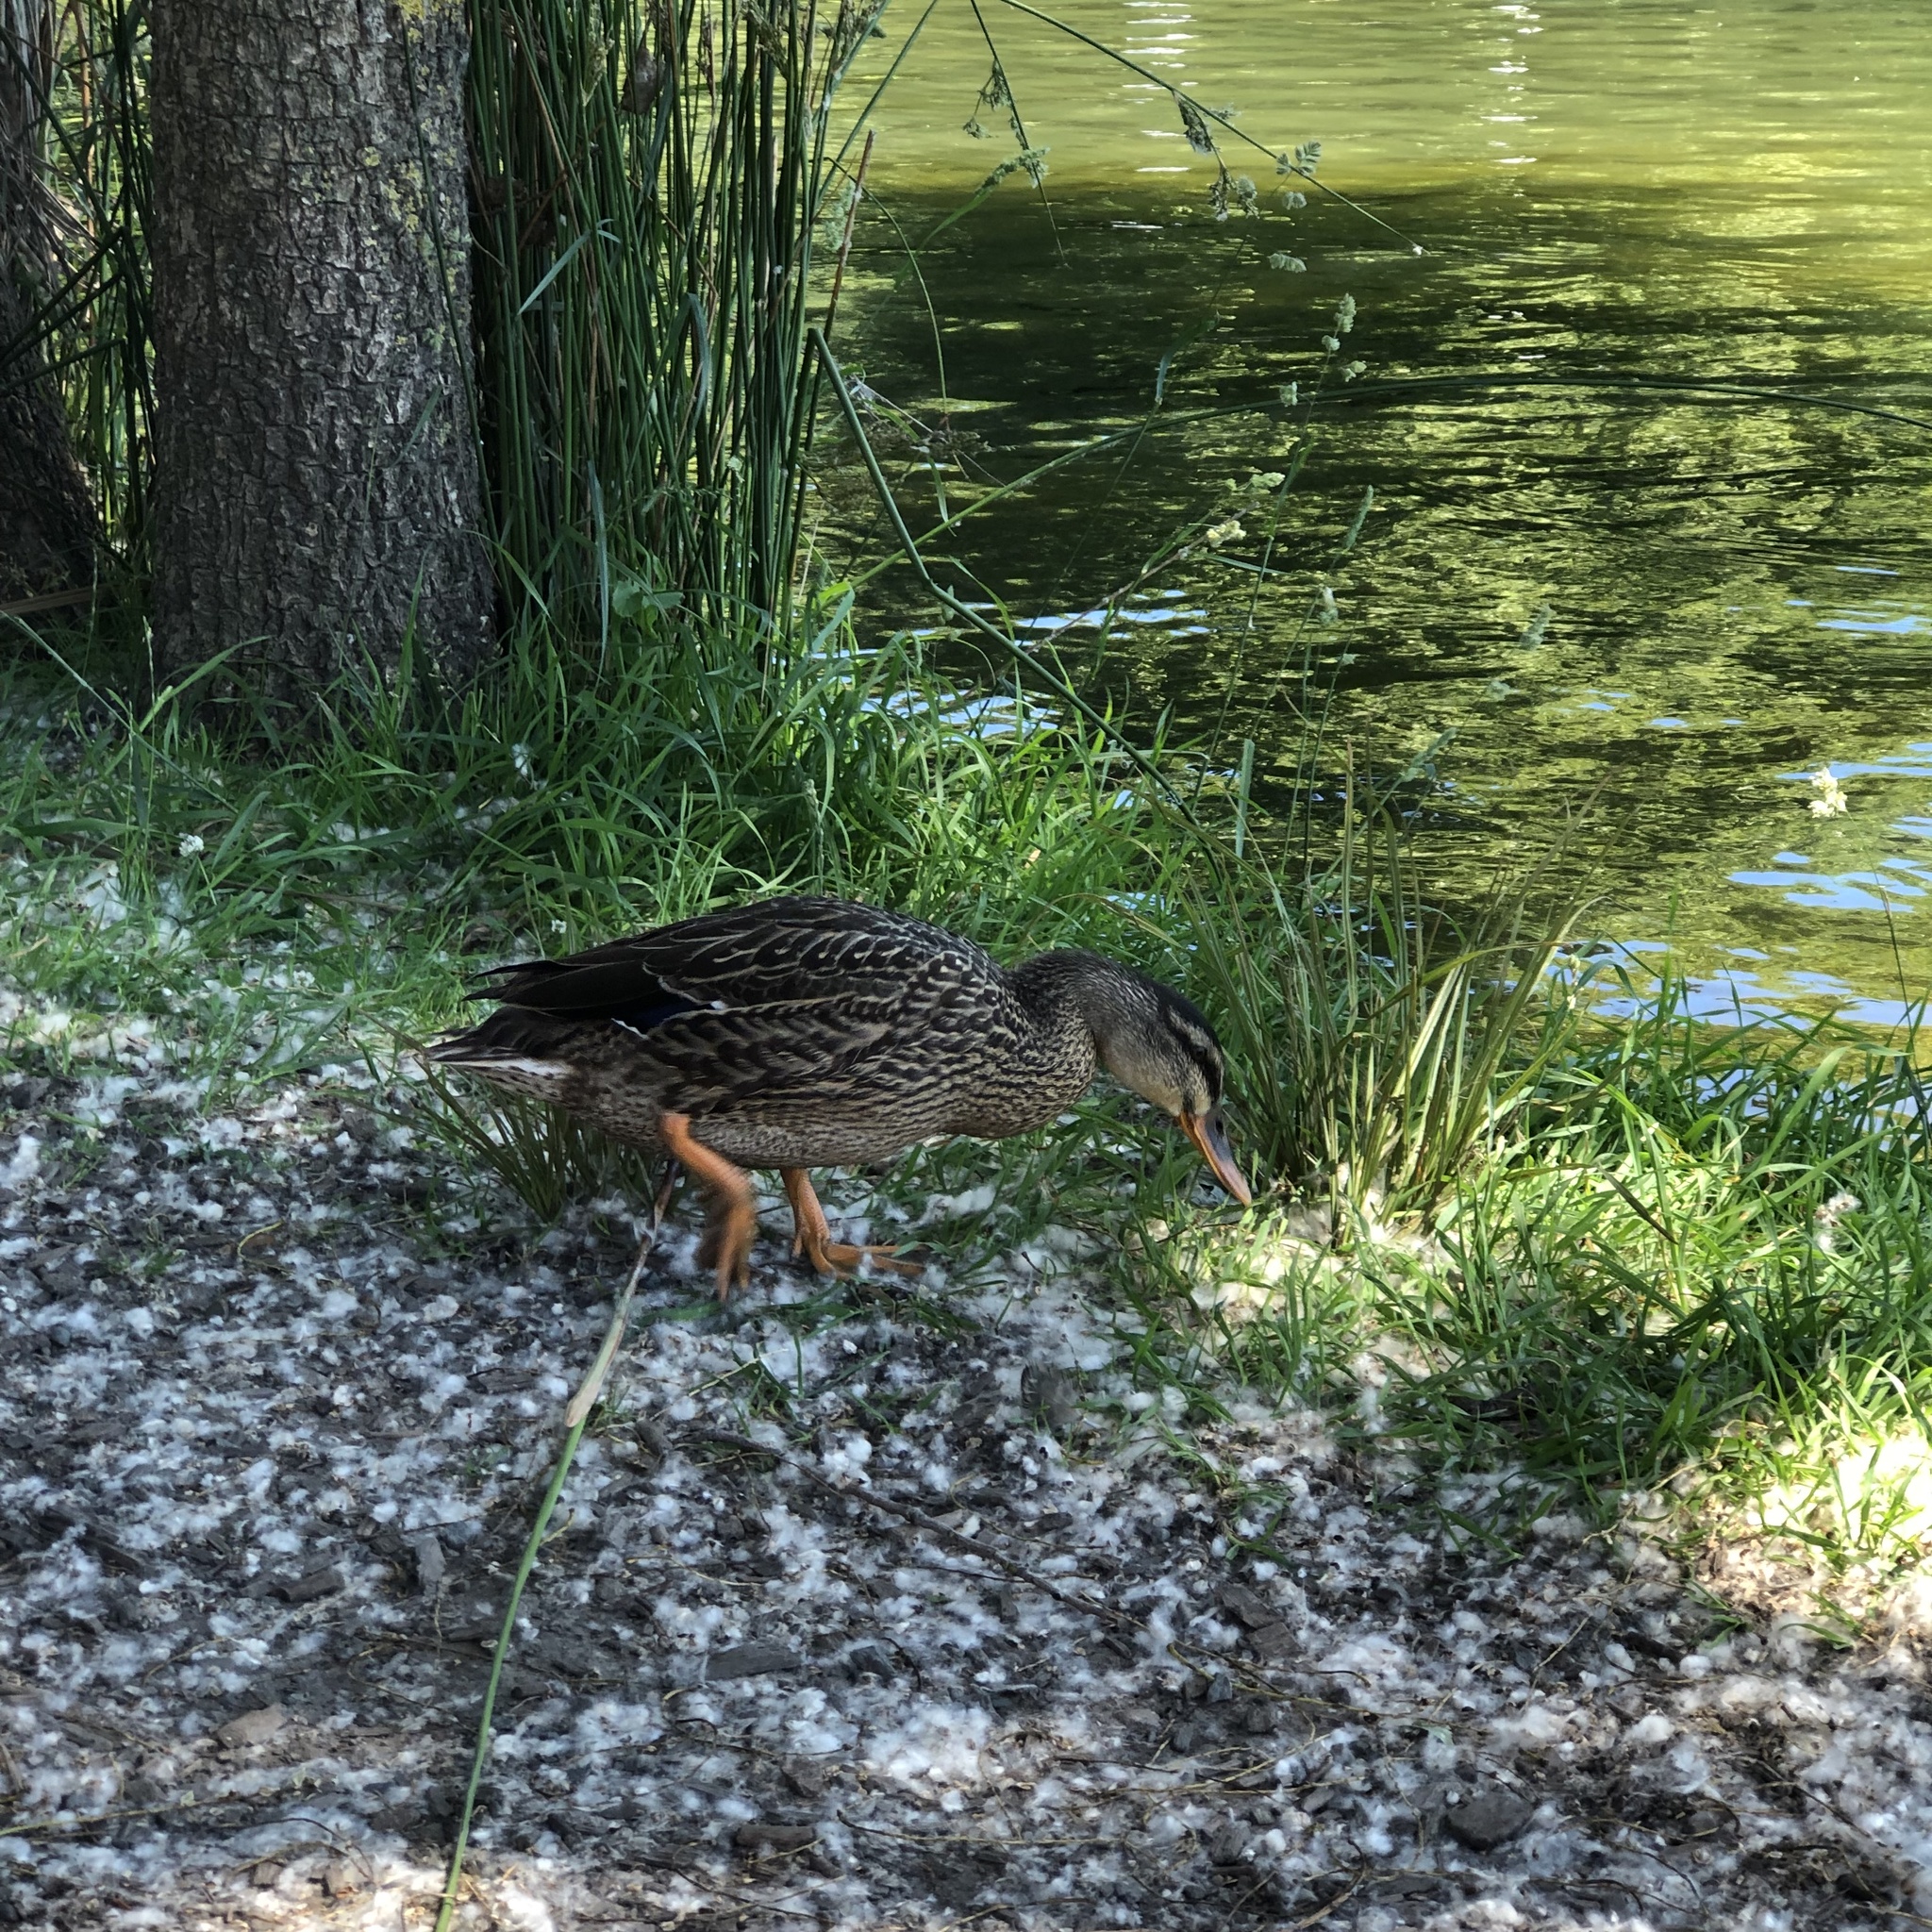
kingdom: Animalia
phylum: Chordata
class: Aves
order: Anseriformes
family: Anatidae
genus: Anas
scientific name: Anas platyrhynchos
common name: Mallard
